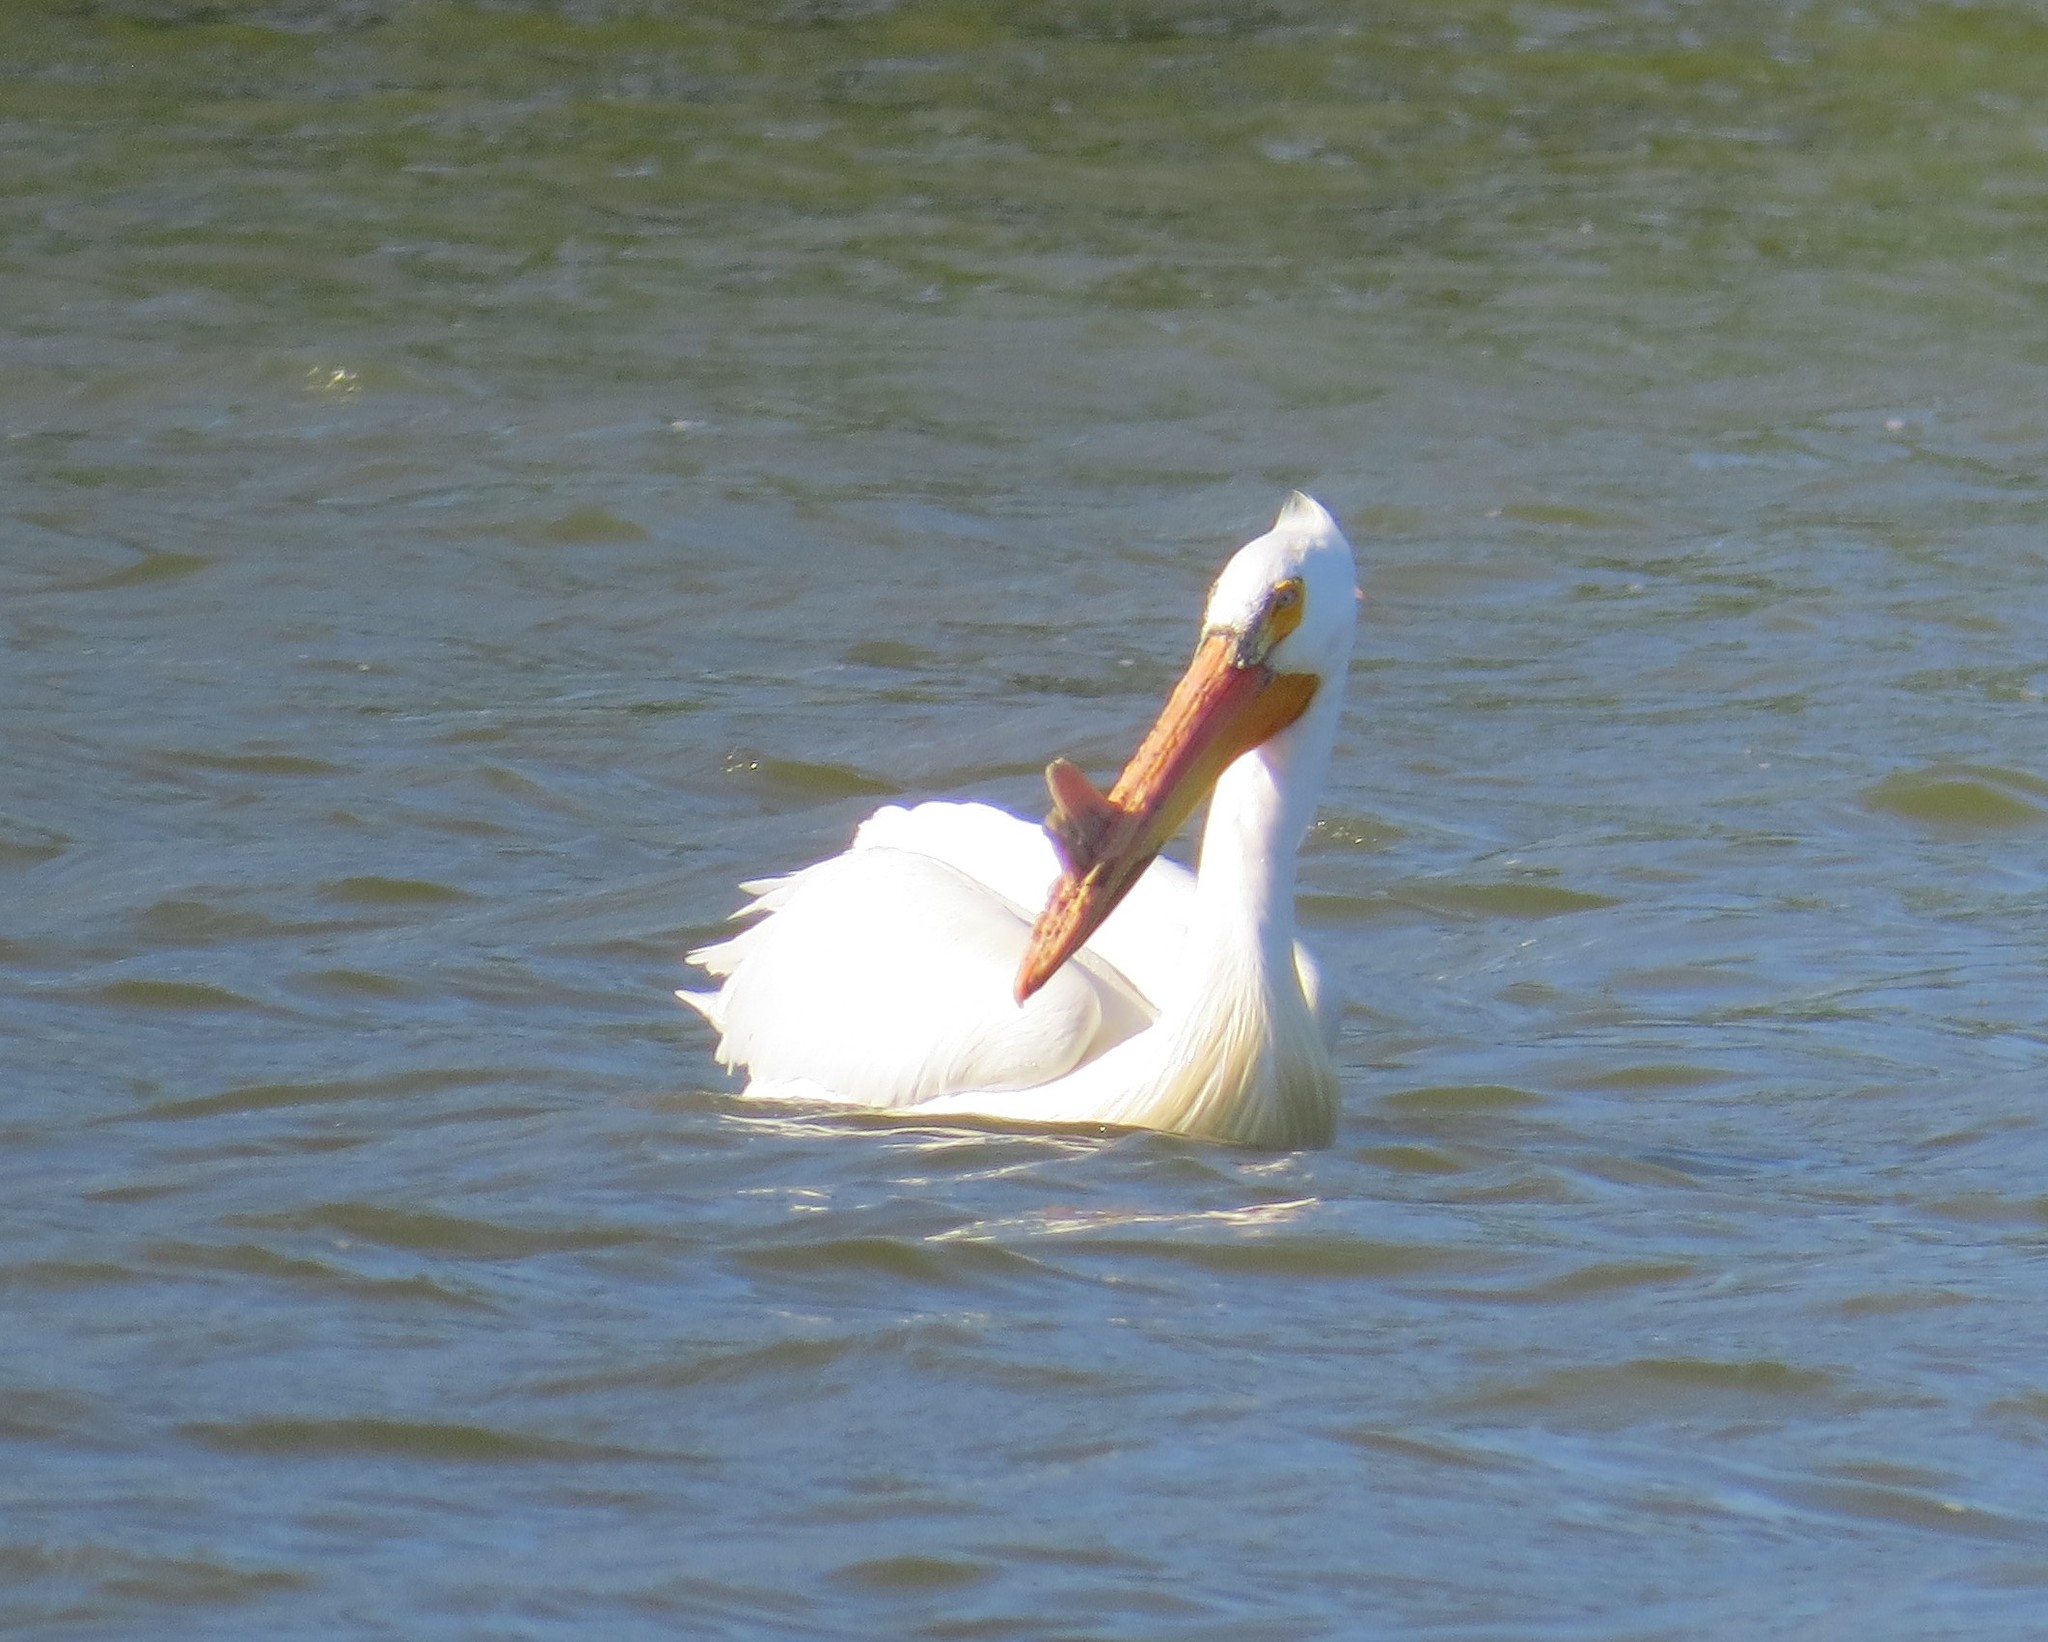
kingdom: Animalia
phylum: Chordata
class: Aves
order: Pelecaniformes
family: Pelecanidae
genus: Pelecanus
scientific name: Pelecanus erythrorhynchos
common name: American white pelican
